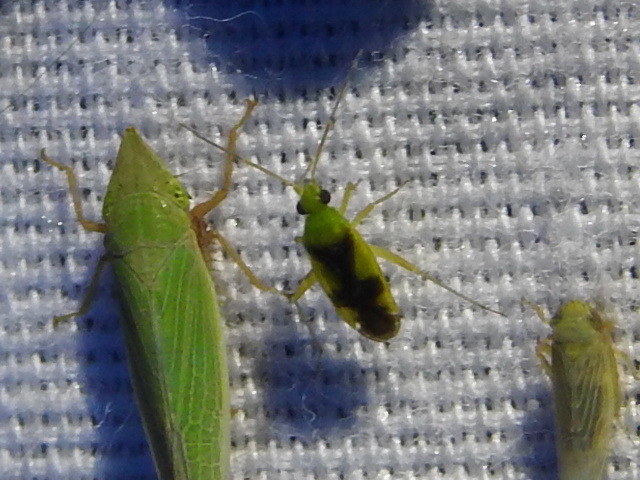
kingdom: Animalia
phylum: Arthropoda
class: Insecta
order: Hemiptera
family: Miridae
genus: Reuteroscopus
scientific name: Reuteroscopus ornatus
